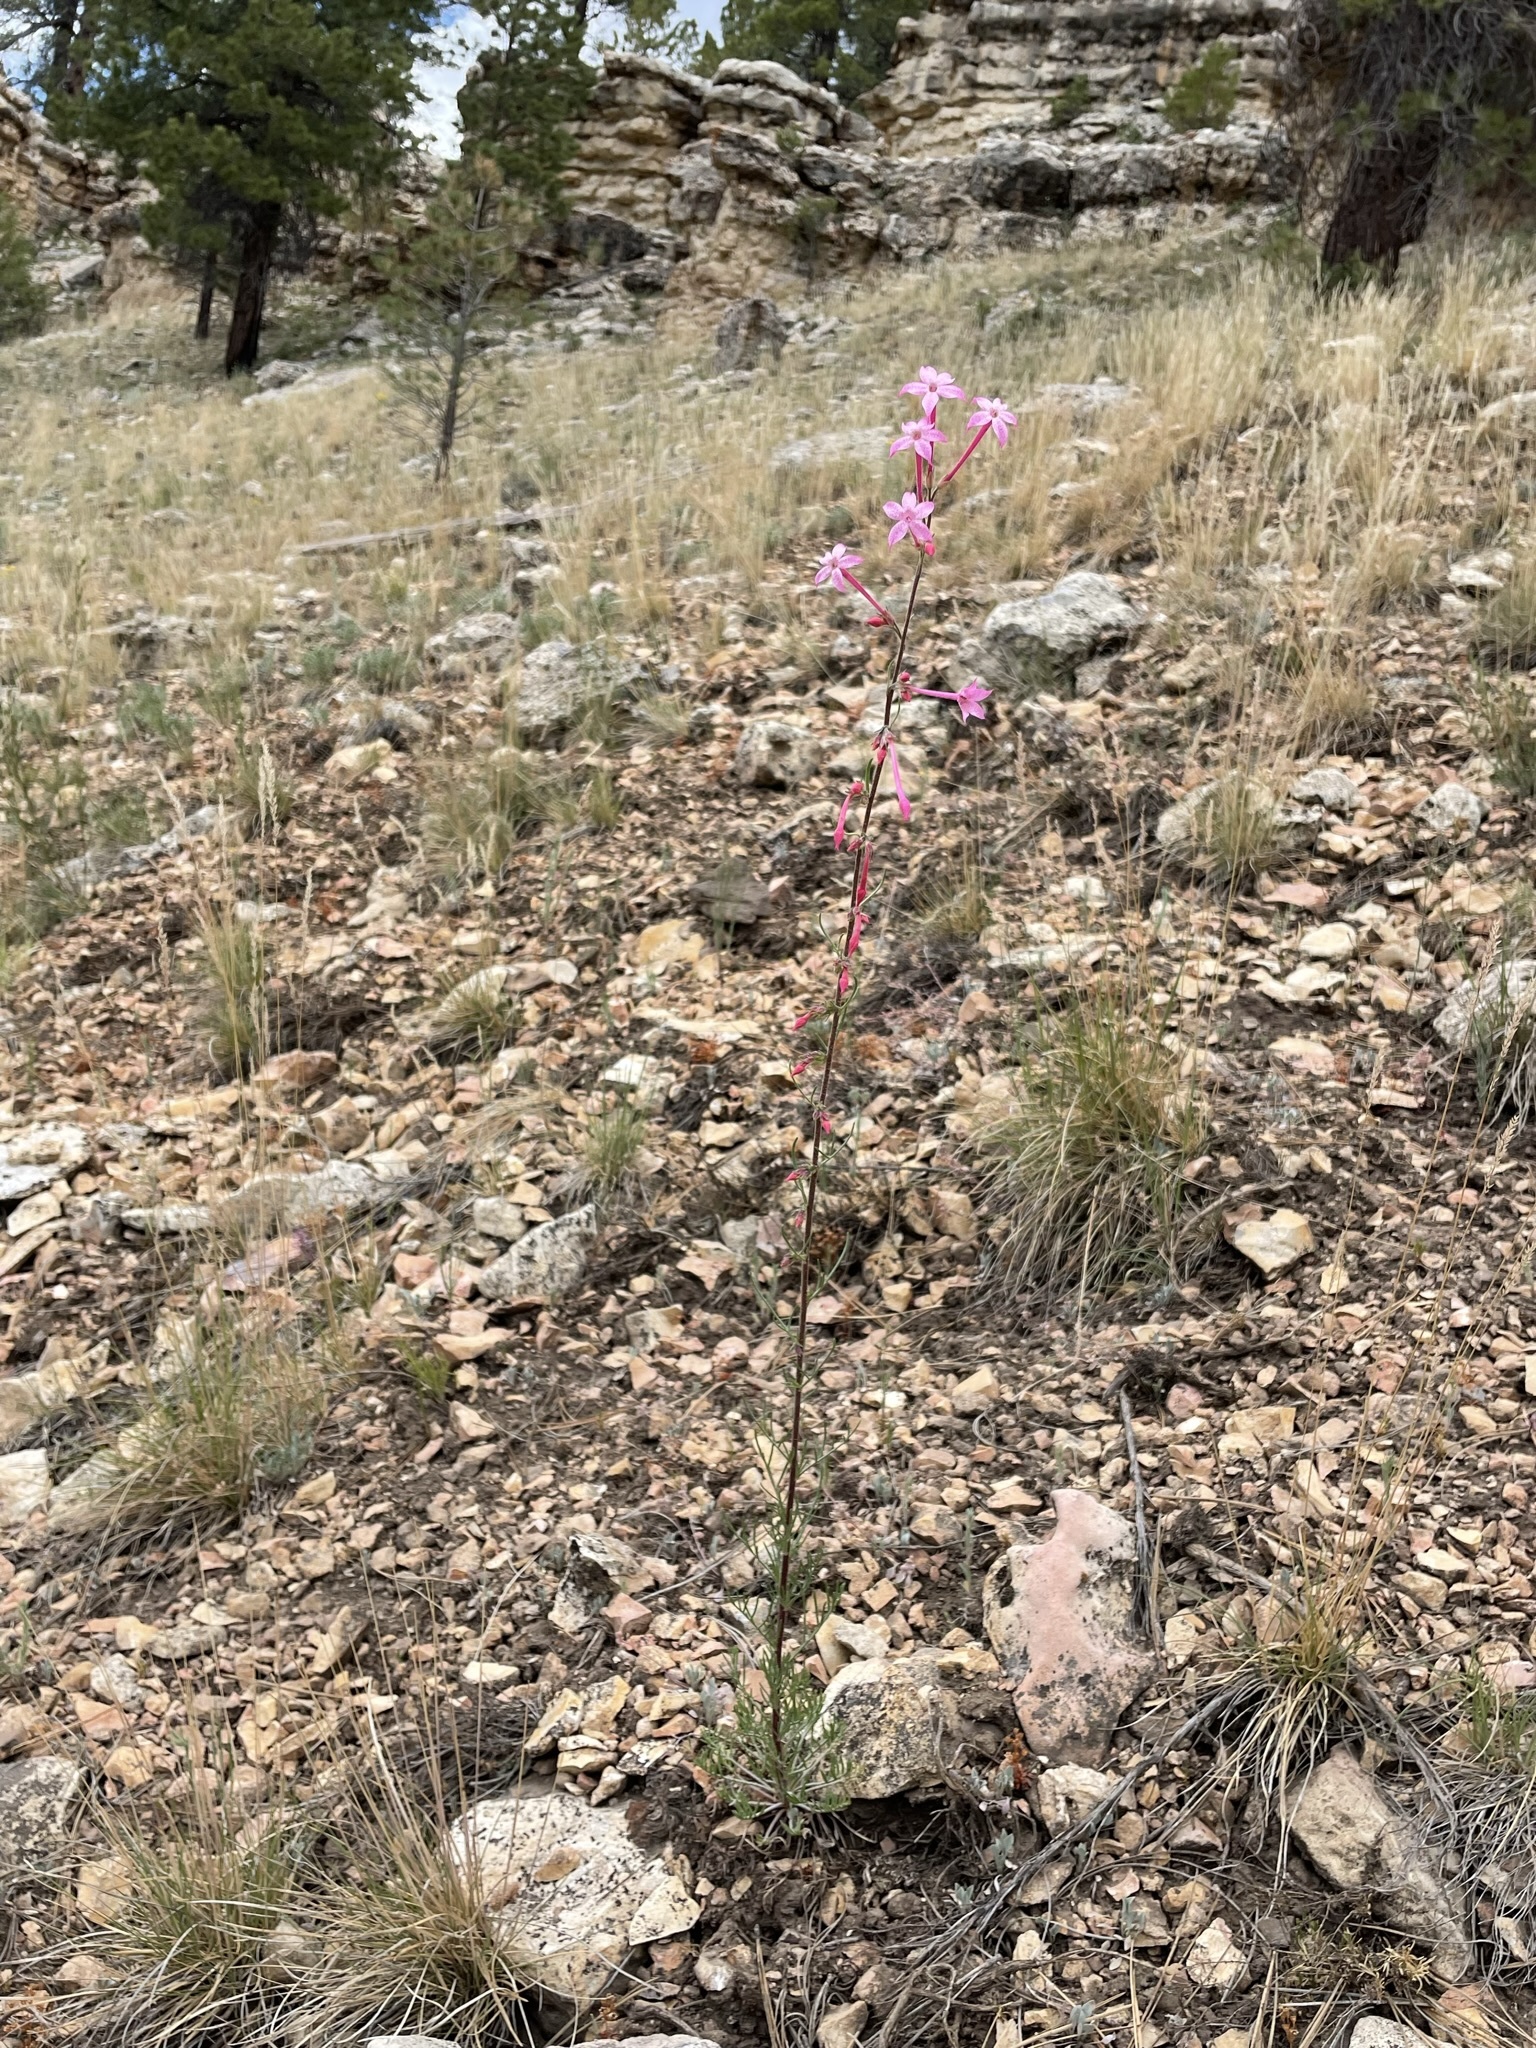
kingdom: Plantae
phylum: Tracheophyta
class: Magnoliopsida
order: Ericales
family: Polemoniaceae
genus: Ipomopsis
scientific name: Ipomopsis tenuituba
